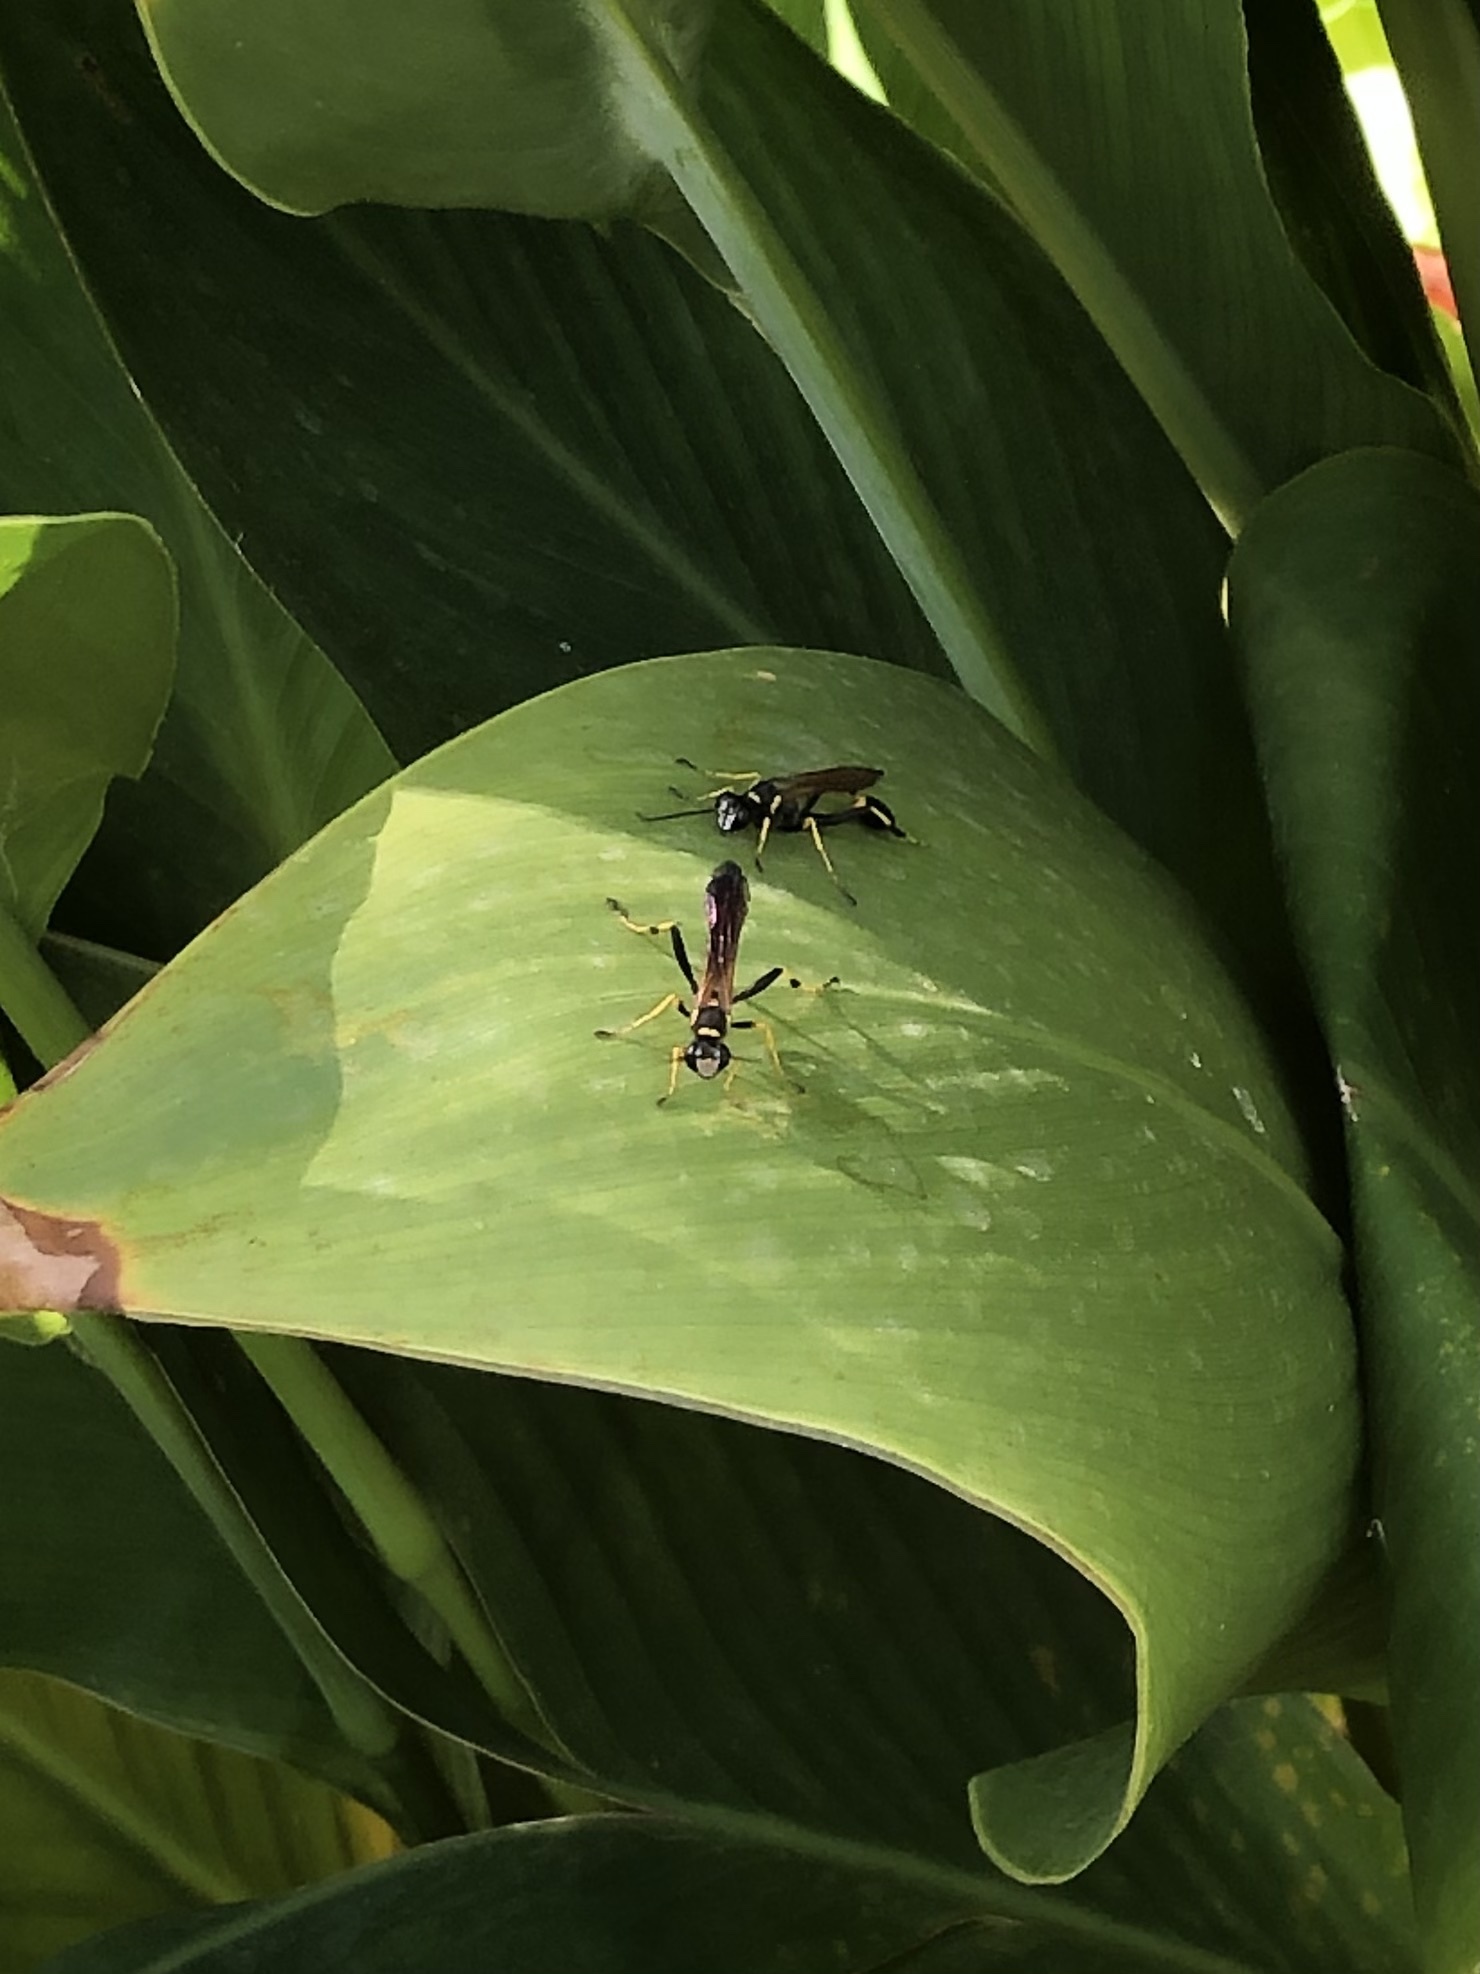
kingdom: Animalia
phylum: Arthropoda
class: Insecta
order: Hymenoptera
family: Sphecidae
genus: Sceliphron
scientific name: Sceliphron caementarium
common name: Mud dauber
